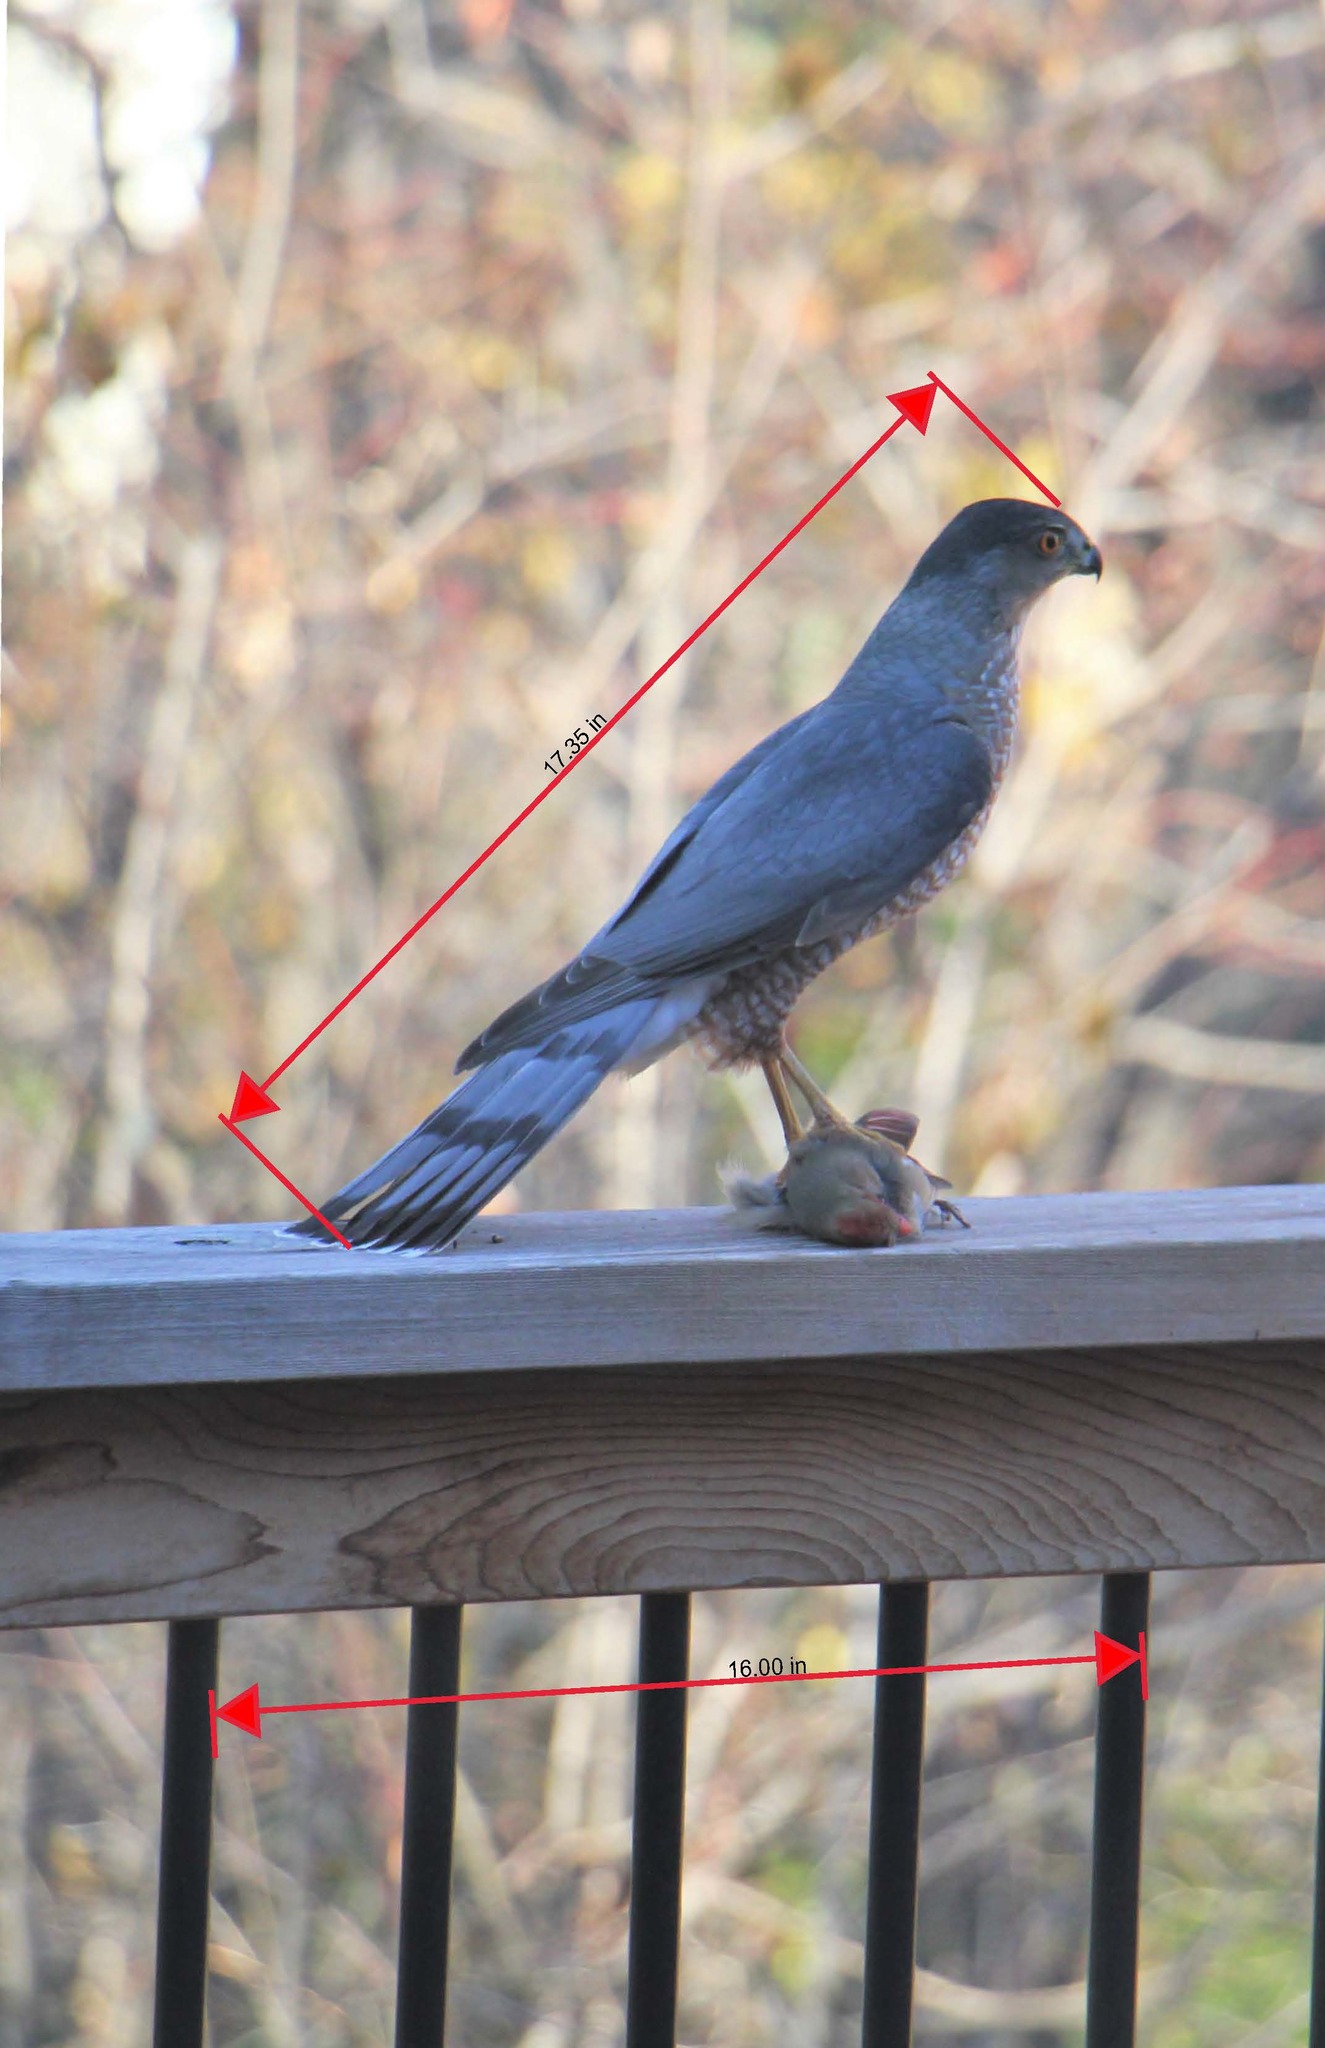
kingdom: Animalia
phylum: Chordata
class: Aves
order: Accipitriformes
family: Accipitridae
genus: Accipiter
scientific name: Accipiter cooperii
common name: Cooper's hawk
